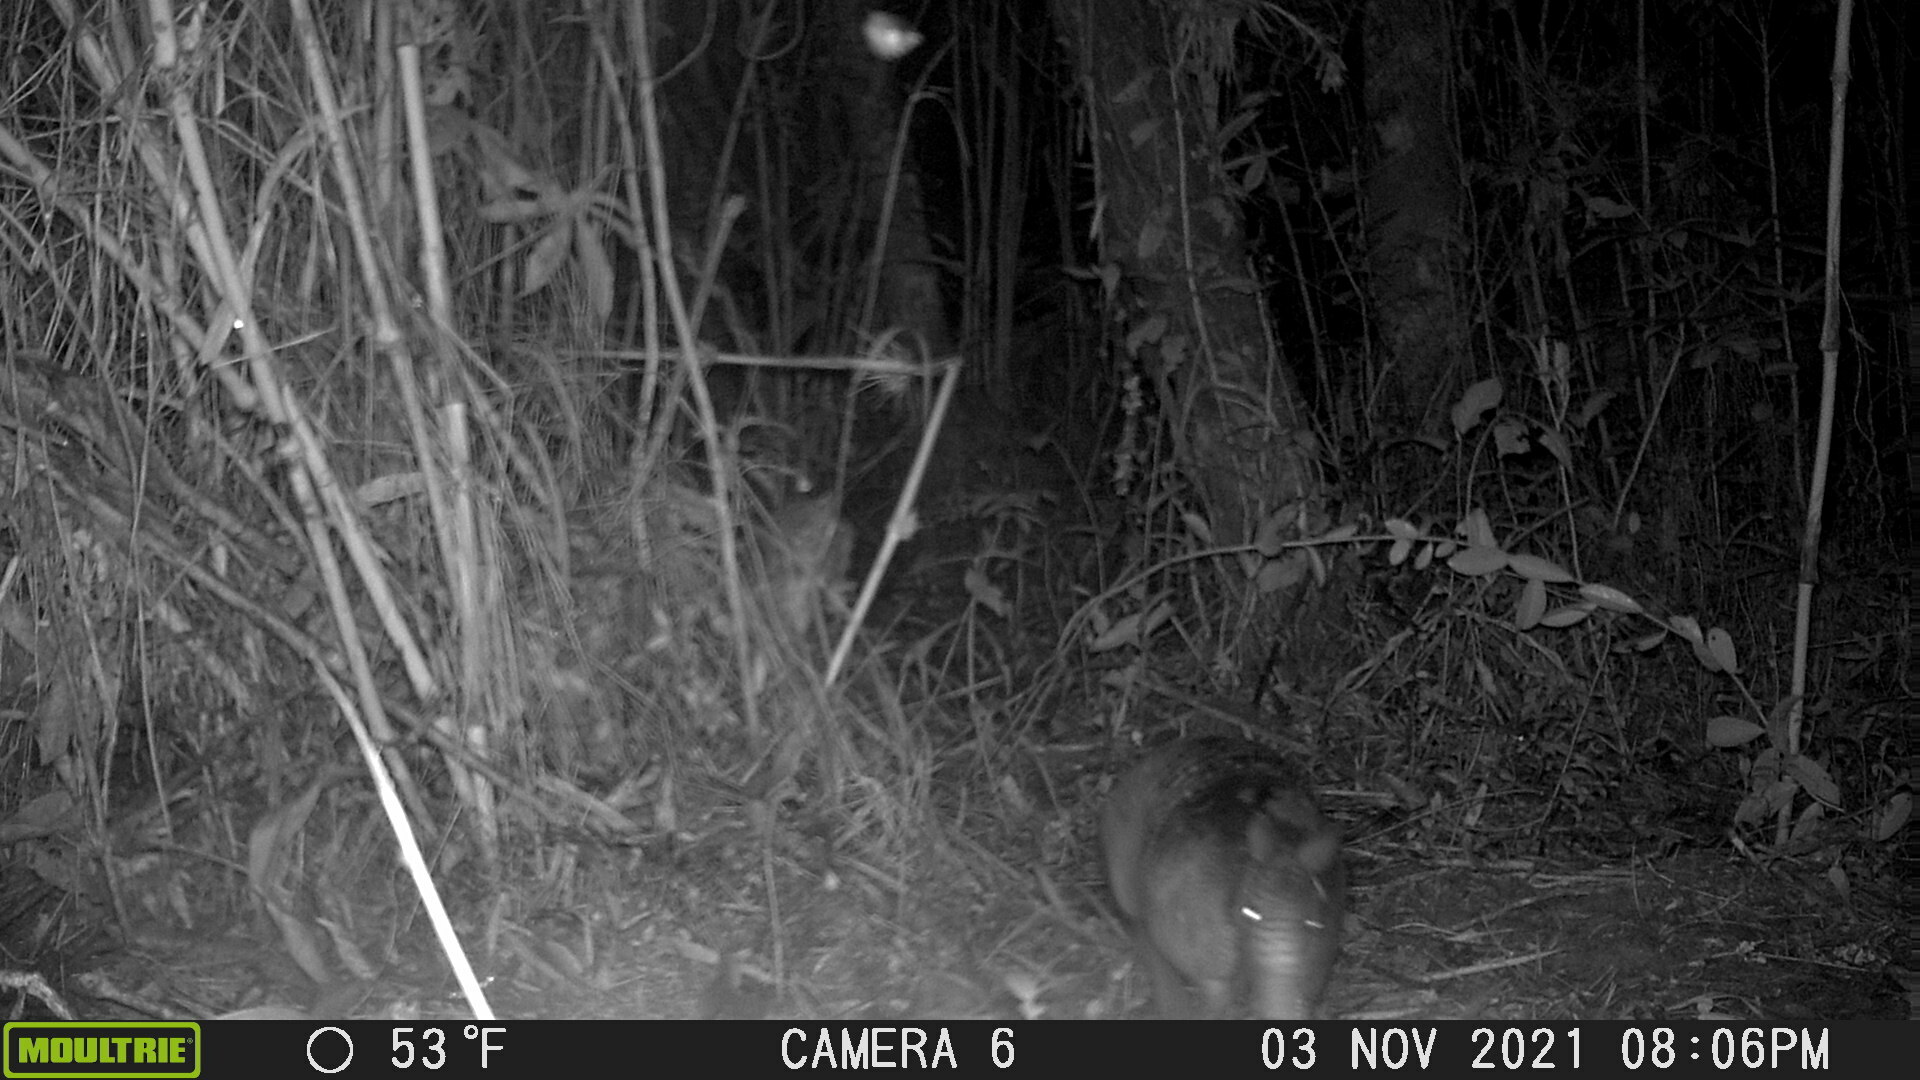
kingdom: Animalia
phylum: Chordata
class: Mammalia
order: Cingulata
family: Dasypodidae
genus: Dasypus
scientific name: Dasypus novemcinctus
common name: Nine-banded armadillo
